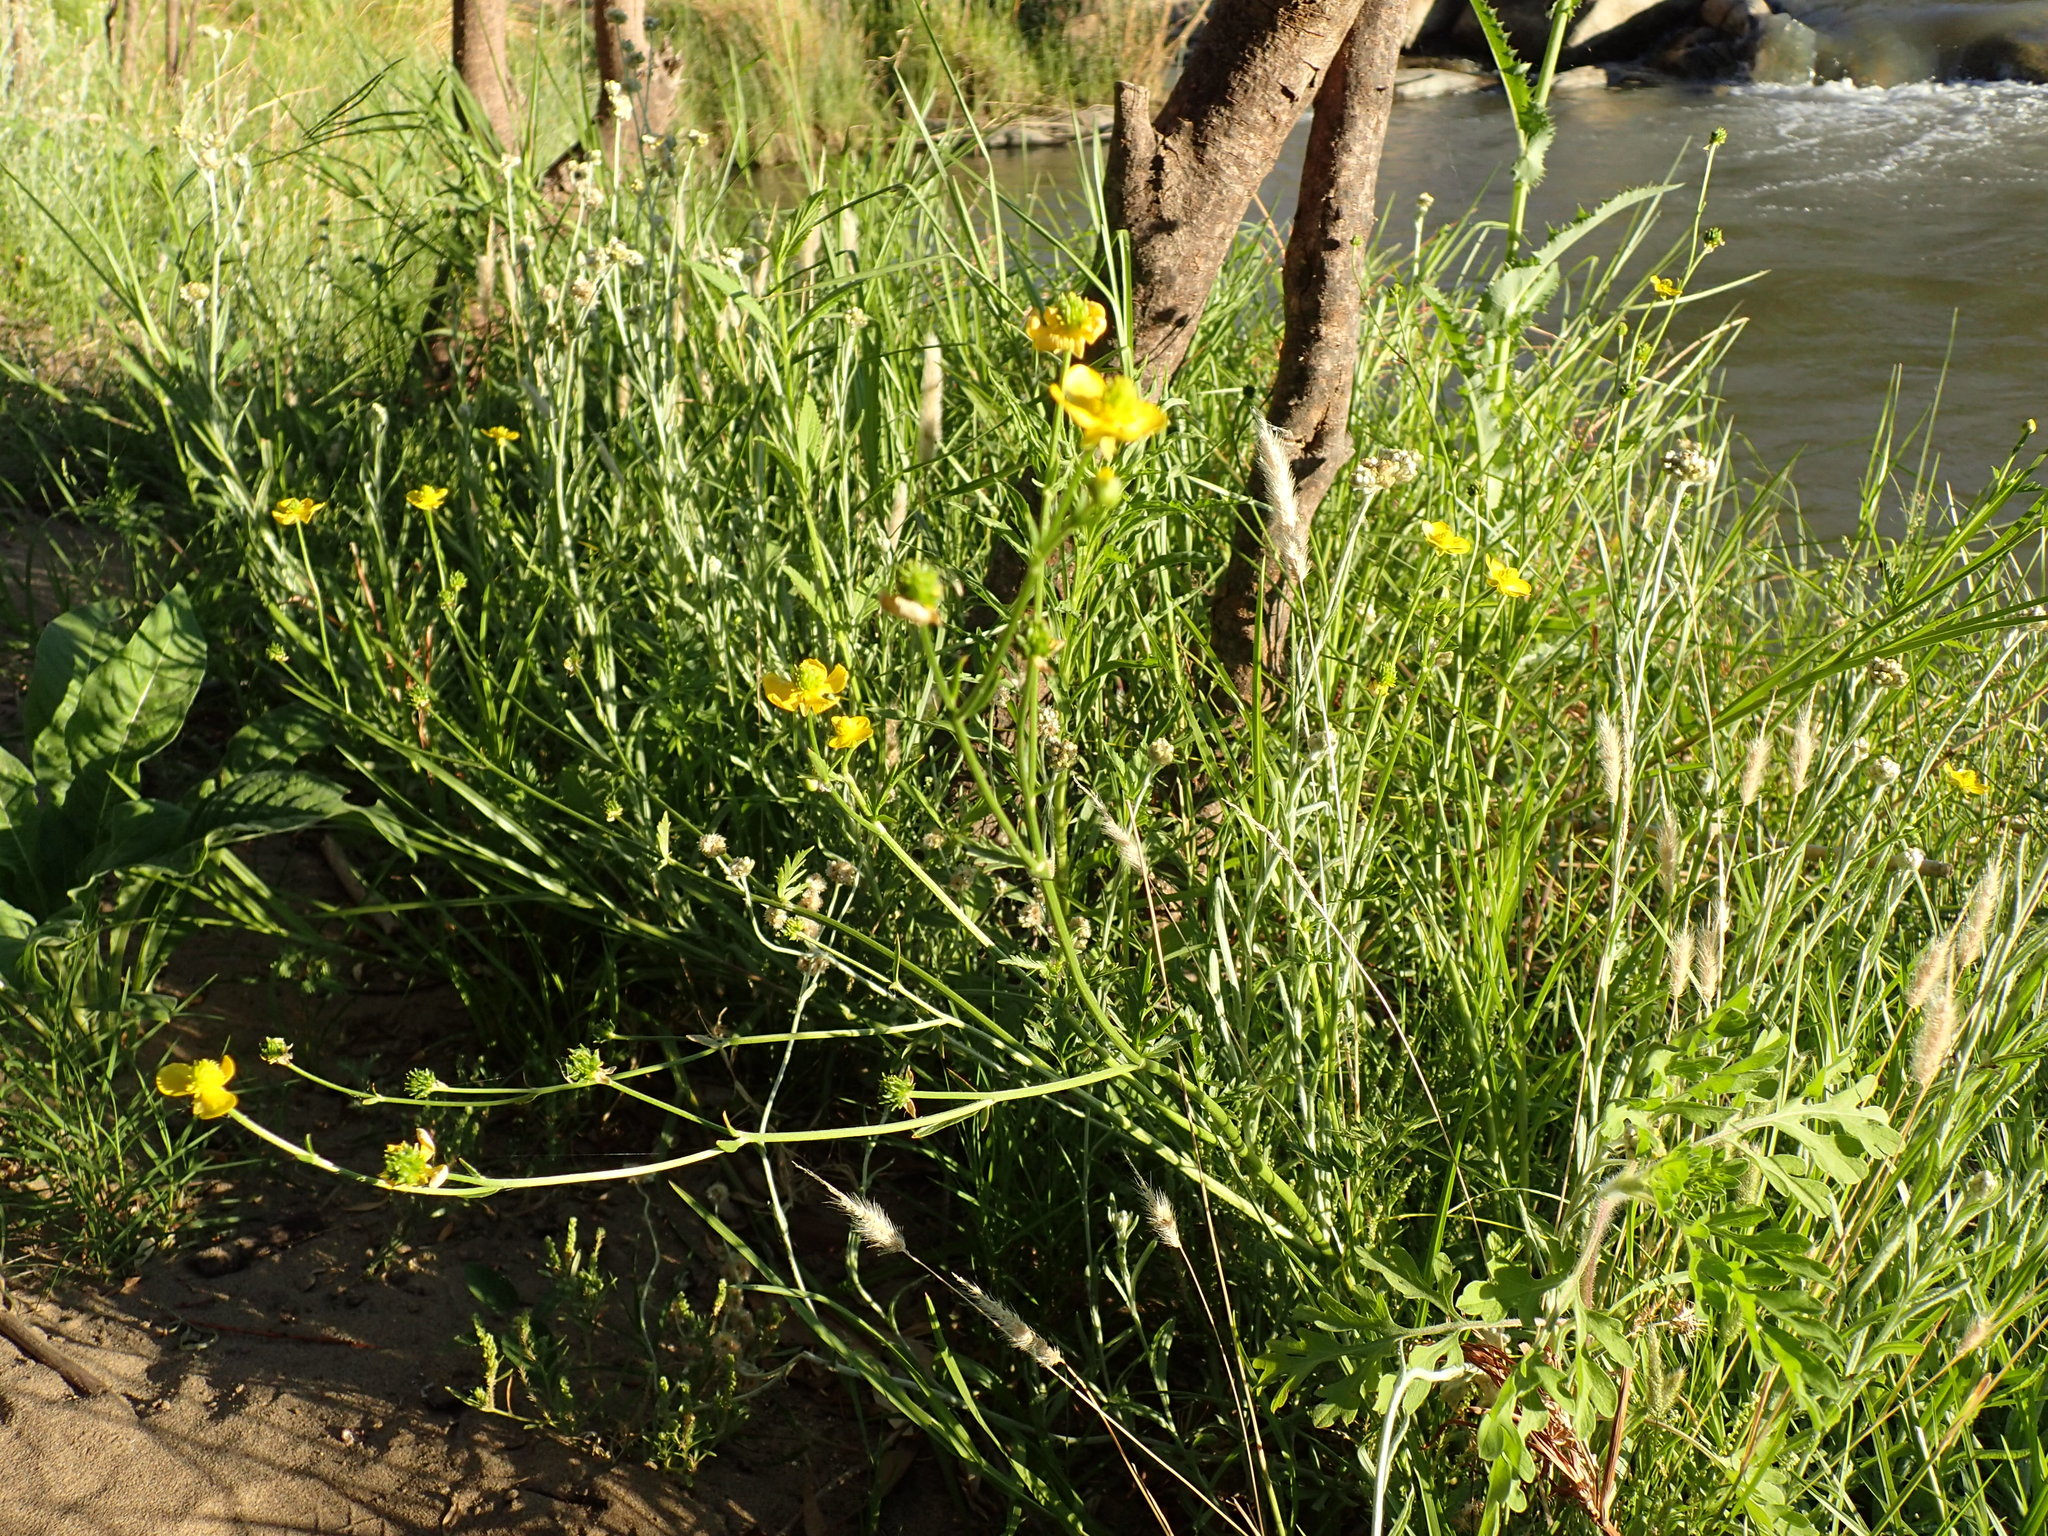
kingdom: Plantae
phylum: Tracheophyta
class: Magnoliopsida
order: Ranunculales
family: Ranunculaceae
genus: Ranunculus
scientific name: Ranunculus multifidus
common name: Wild buttercup
